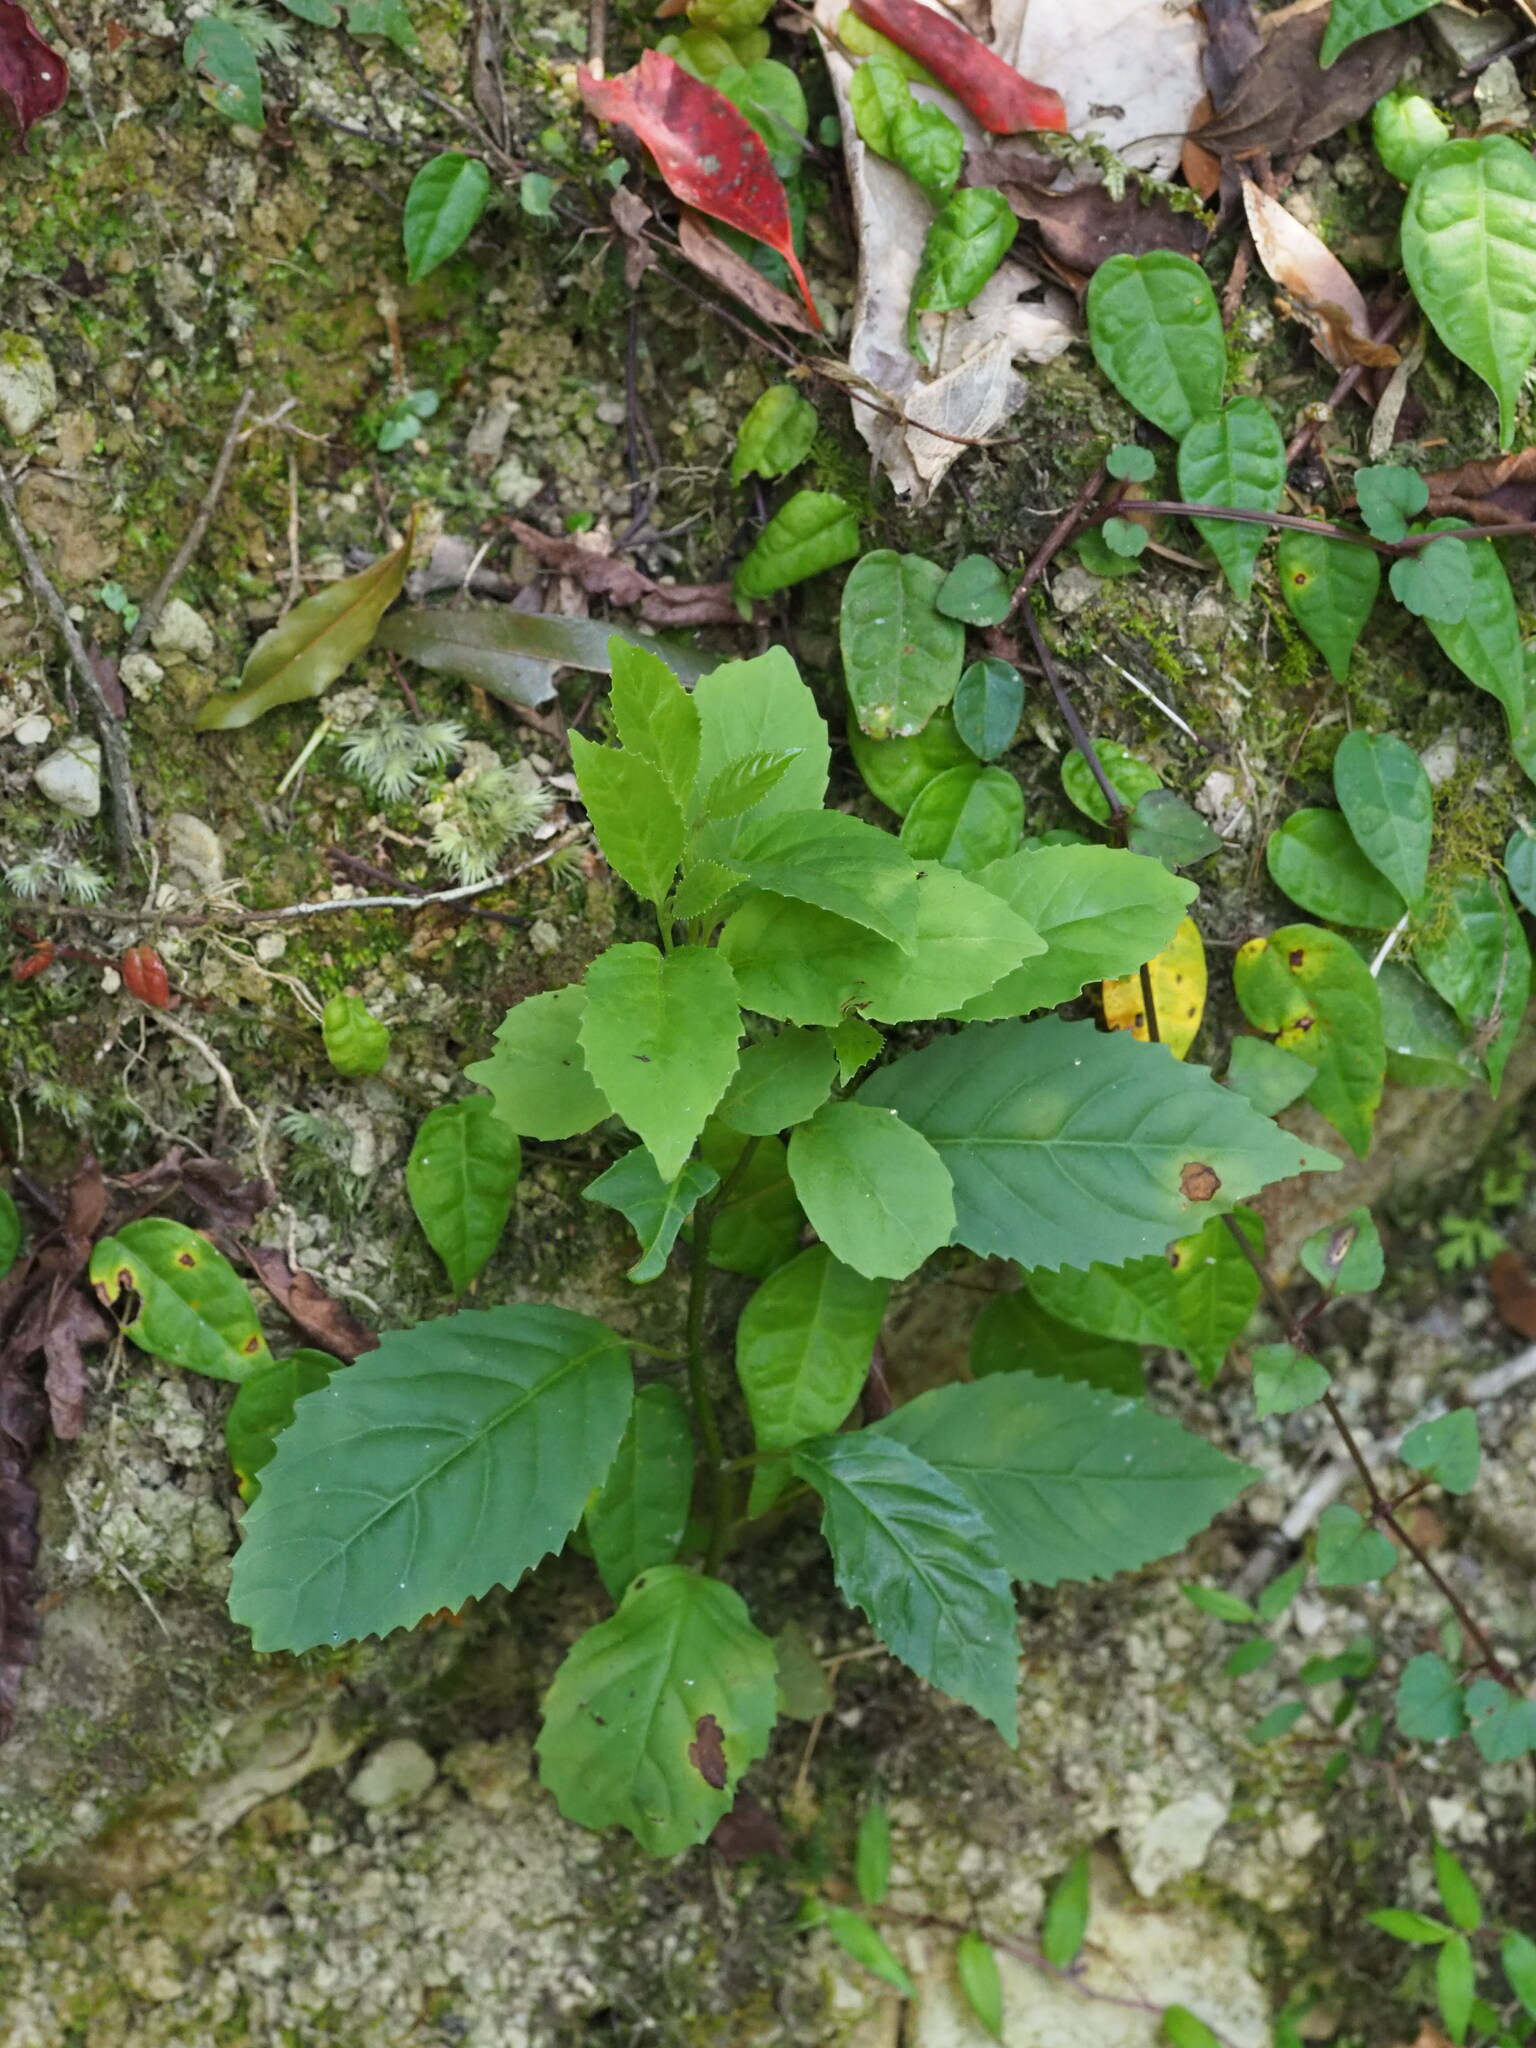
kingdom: Plantae
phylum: Tracheophyta
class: Magnoliopsida
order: Ericales
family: Primulaceae
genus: Maesa
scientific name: Maesa perlaria
